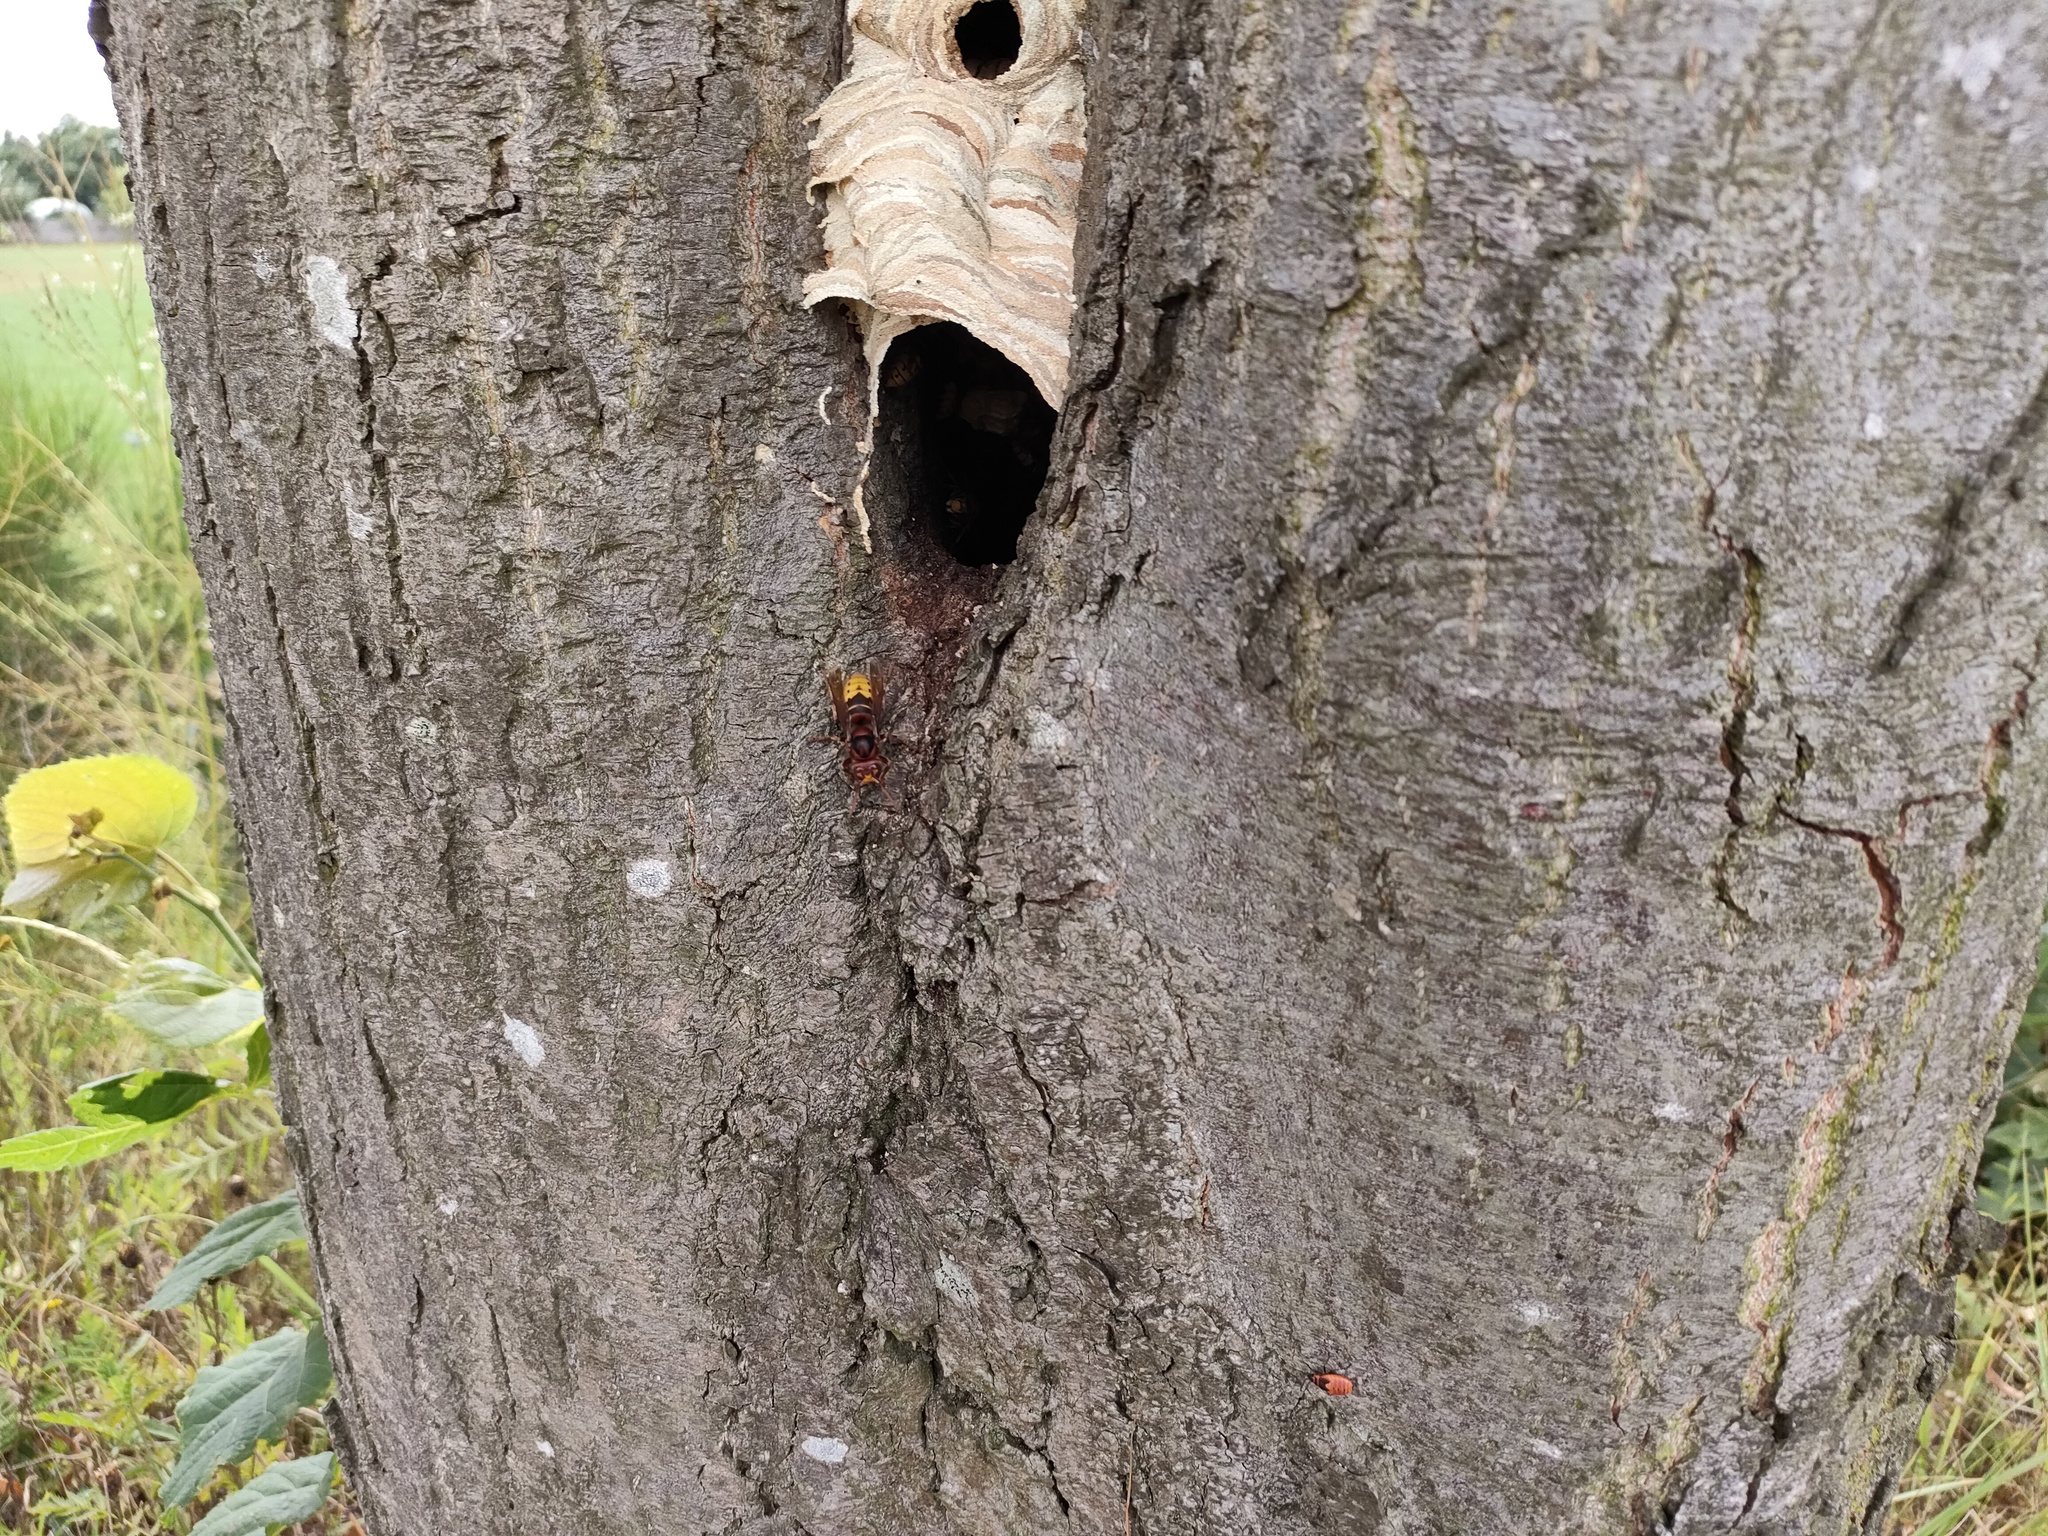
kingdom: Animalia
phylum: Arthropoda
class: Insecta
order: Hymenoptera
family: Vespidae
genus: Vespa
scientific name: Vespa crabro
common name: Hornet
